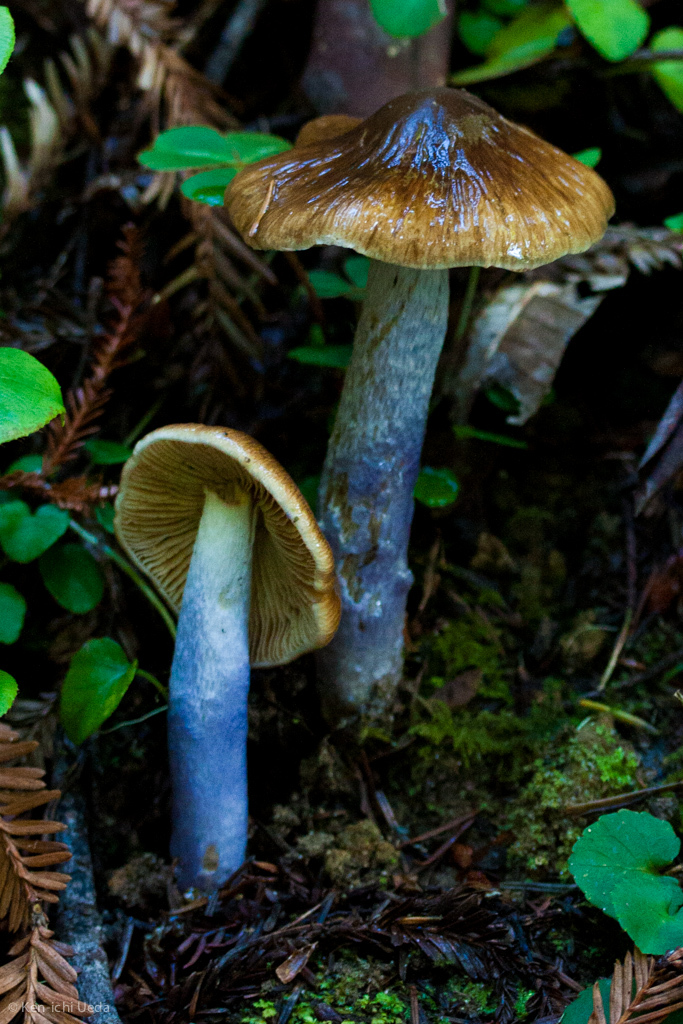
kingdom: Fungi
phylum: Basidiomycota
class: Agaricomycetes
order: Agaricales
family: Cortinariaceae
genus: Cortinarius
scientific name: Cortinarius vanduzerensis
